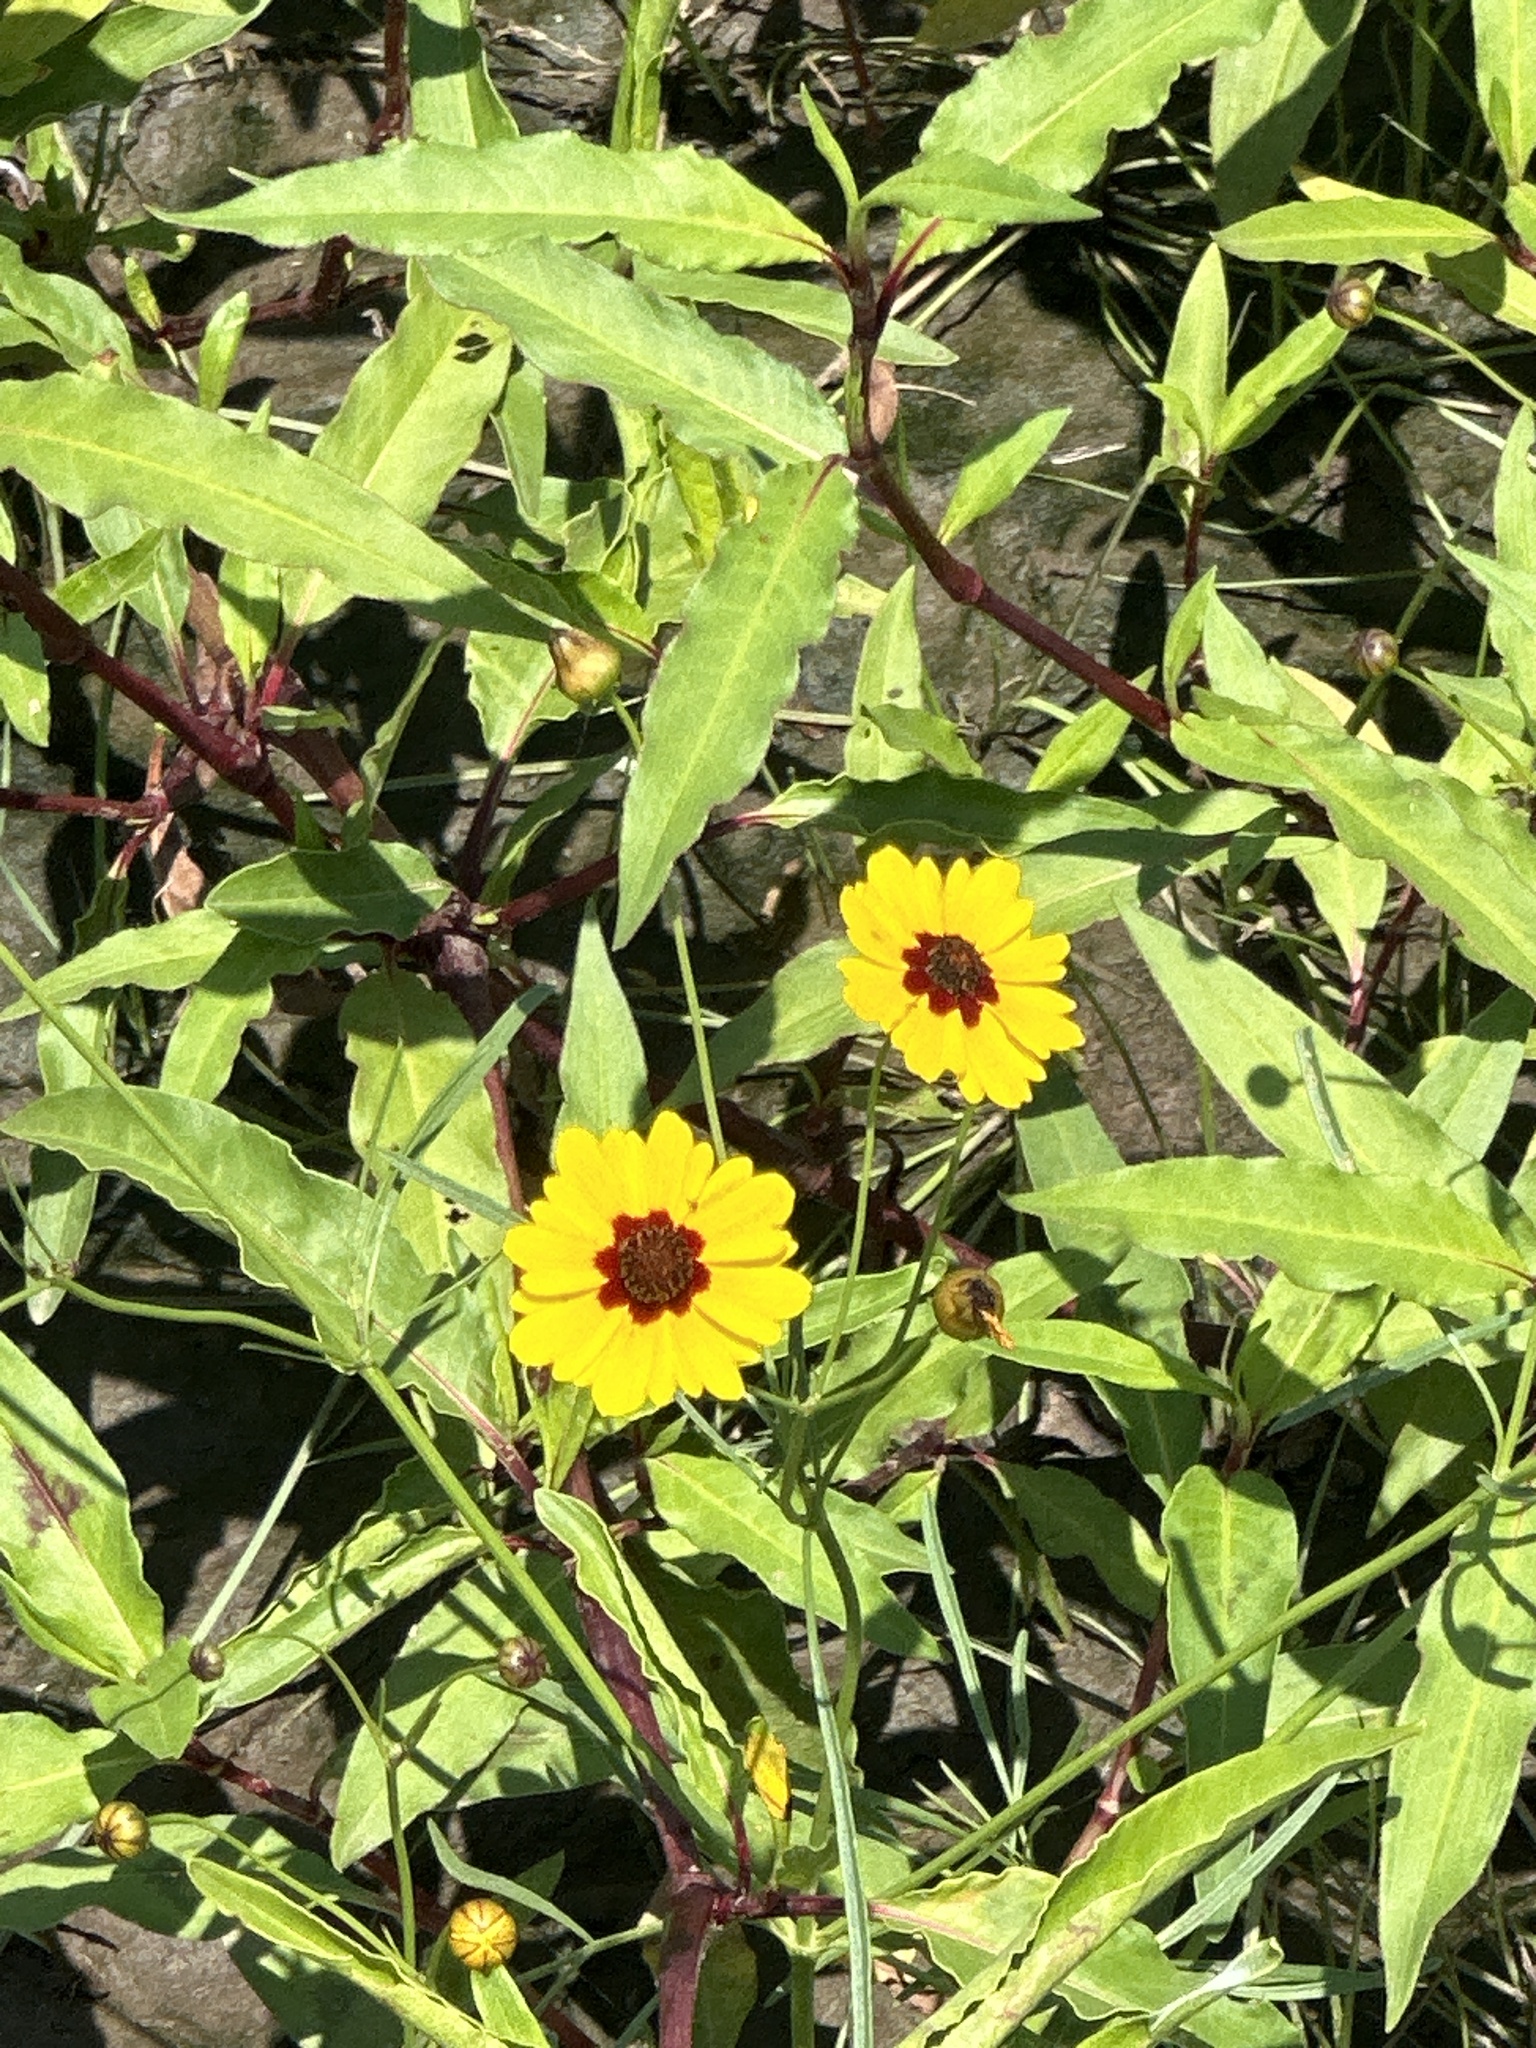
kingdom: Plantae
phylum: Tracheophyta
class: Magnoliopsida
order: Asterales
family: Asteraceae
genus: Coreopsis
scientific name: Coreopsis tinctoria
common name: Garden tickseed
